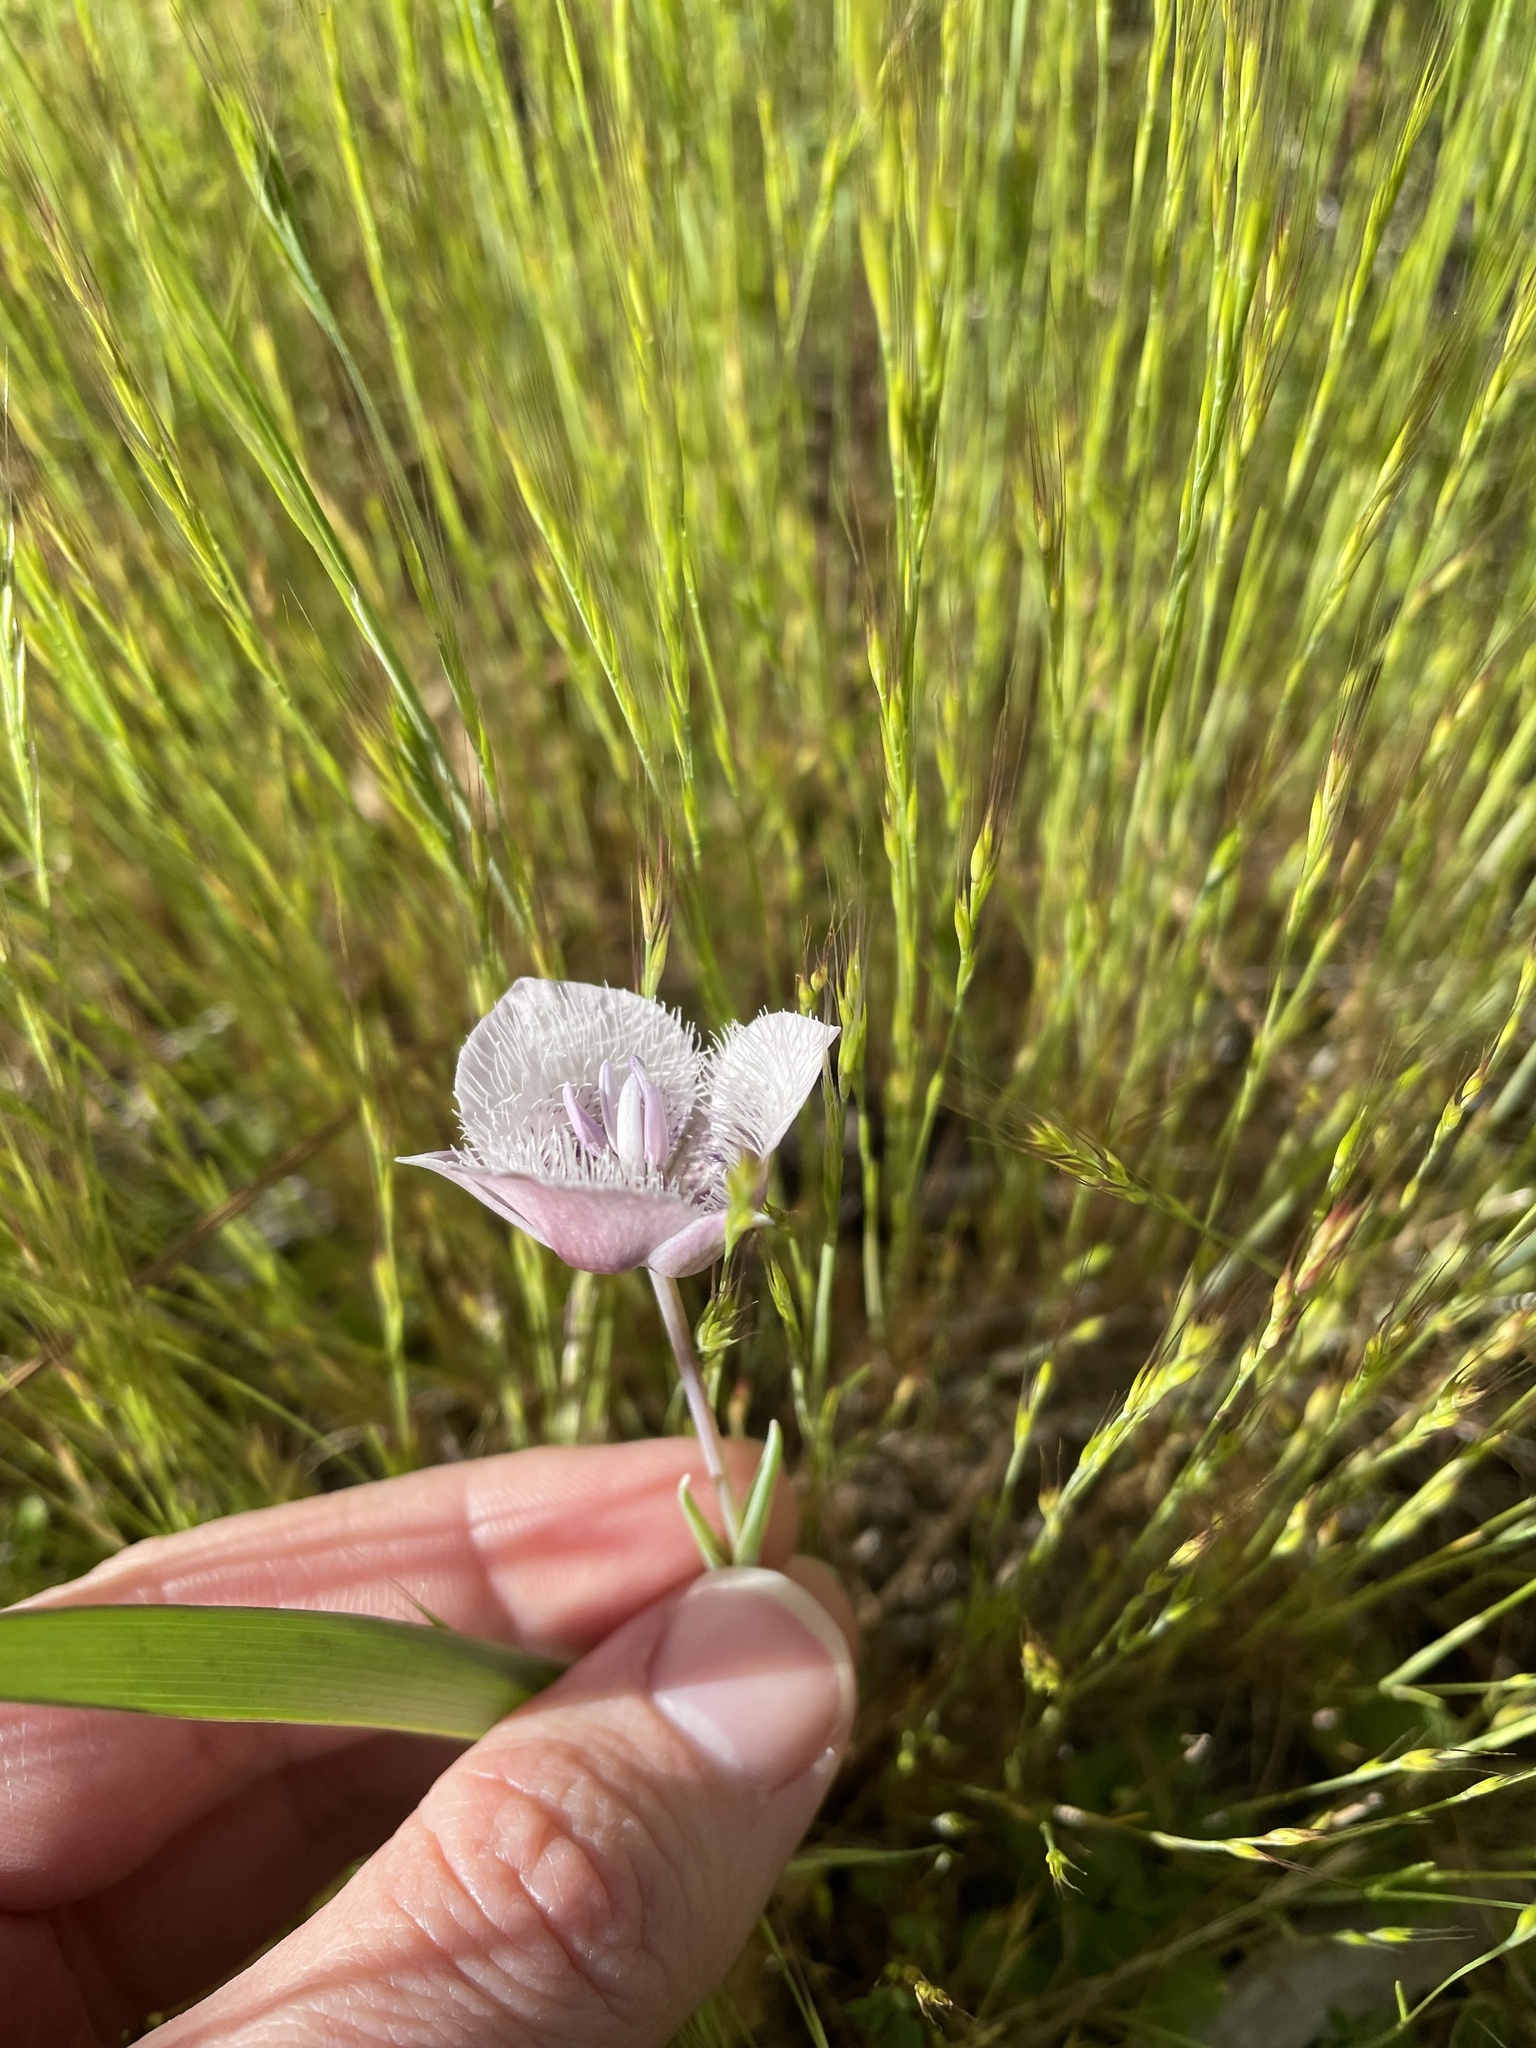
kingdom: Plantae
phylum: Tracheophyta
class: Liliopsida
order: Liliales
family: Liliaceae
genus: Calochortus
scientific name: Calochortus tolmiei
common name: Pussy-ears
